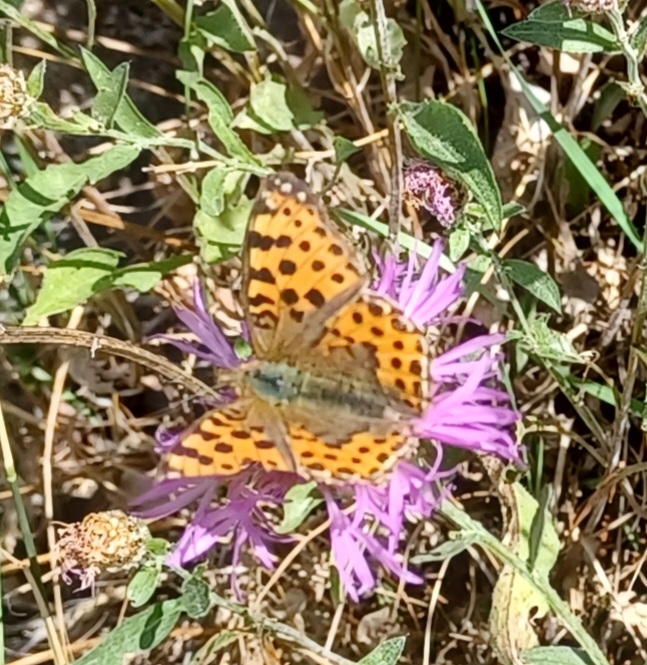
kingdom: Animalia
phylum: Arthropoda
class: Insecta
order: Lepidoptera
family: Nymphalidae
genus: Issoria
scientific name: Issoria lathonia
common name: Queen of spain fritillary
